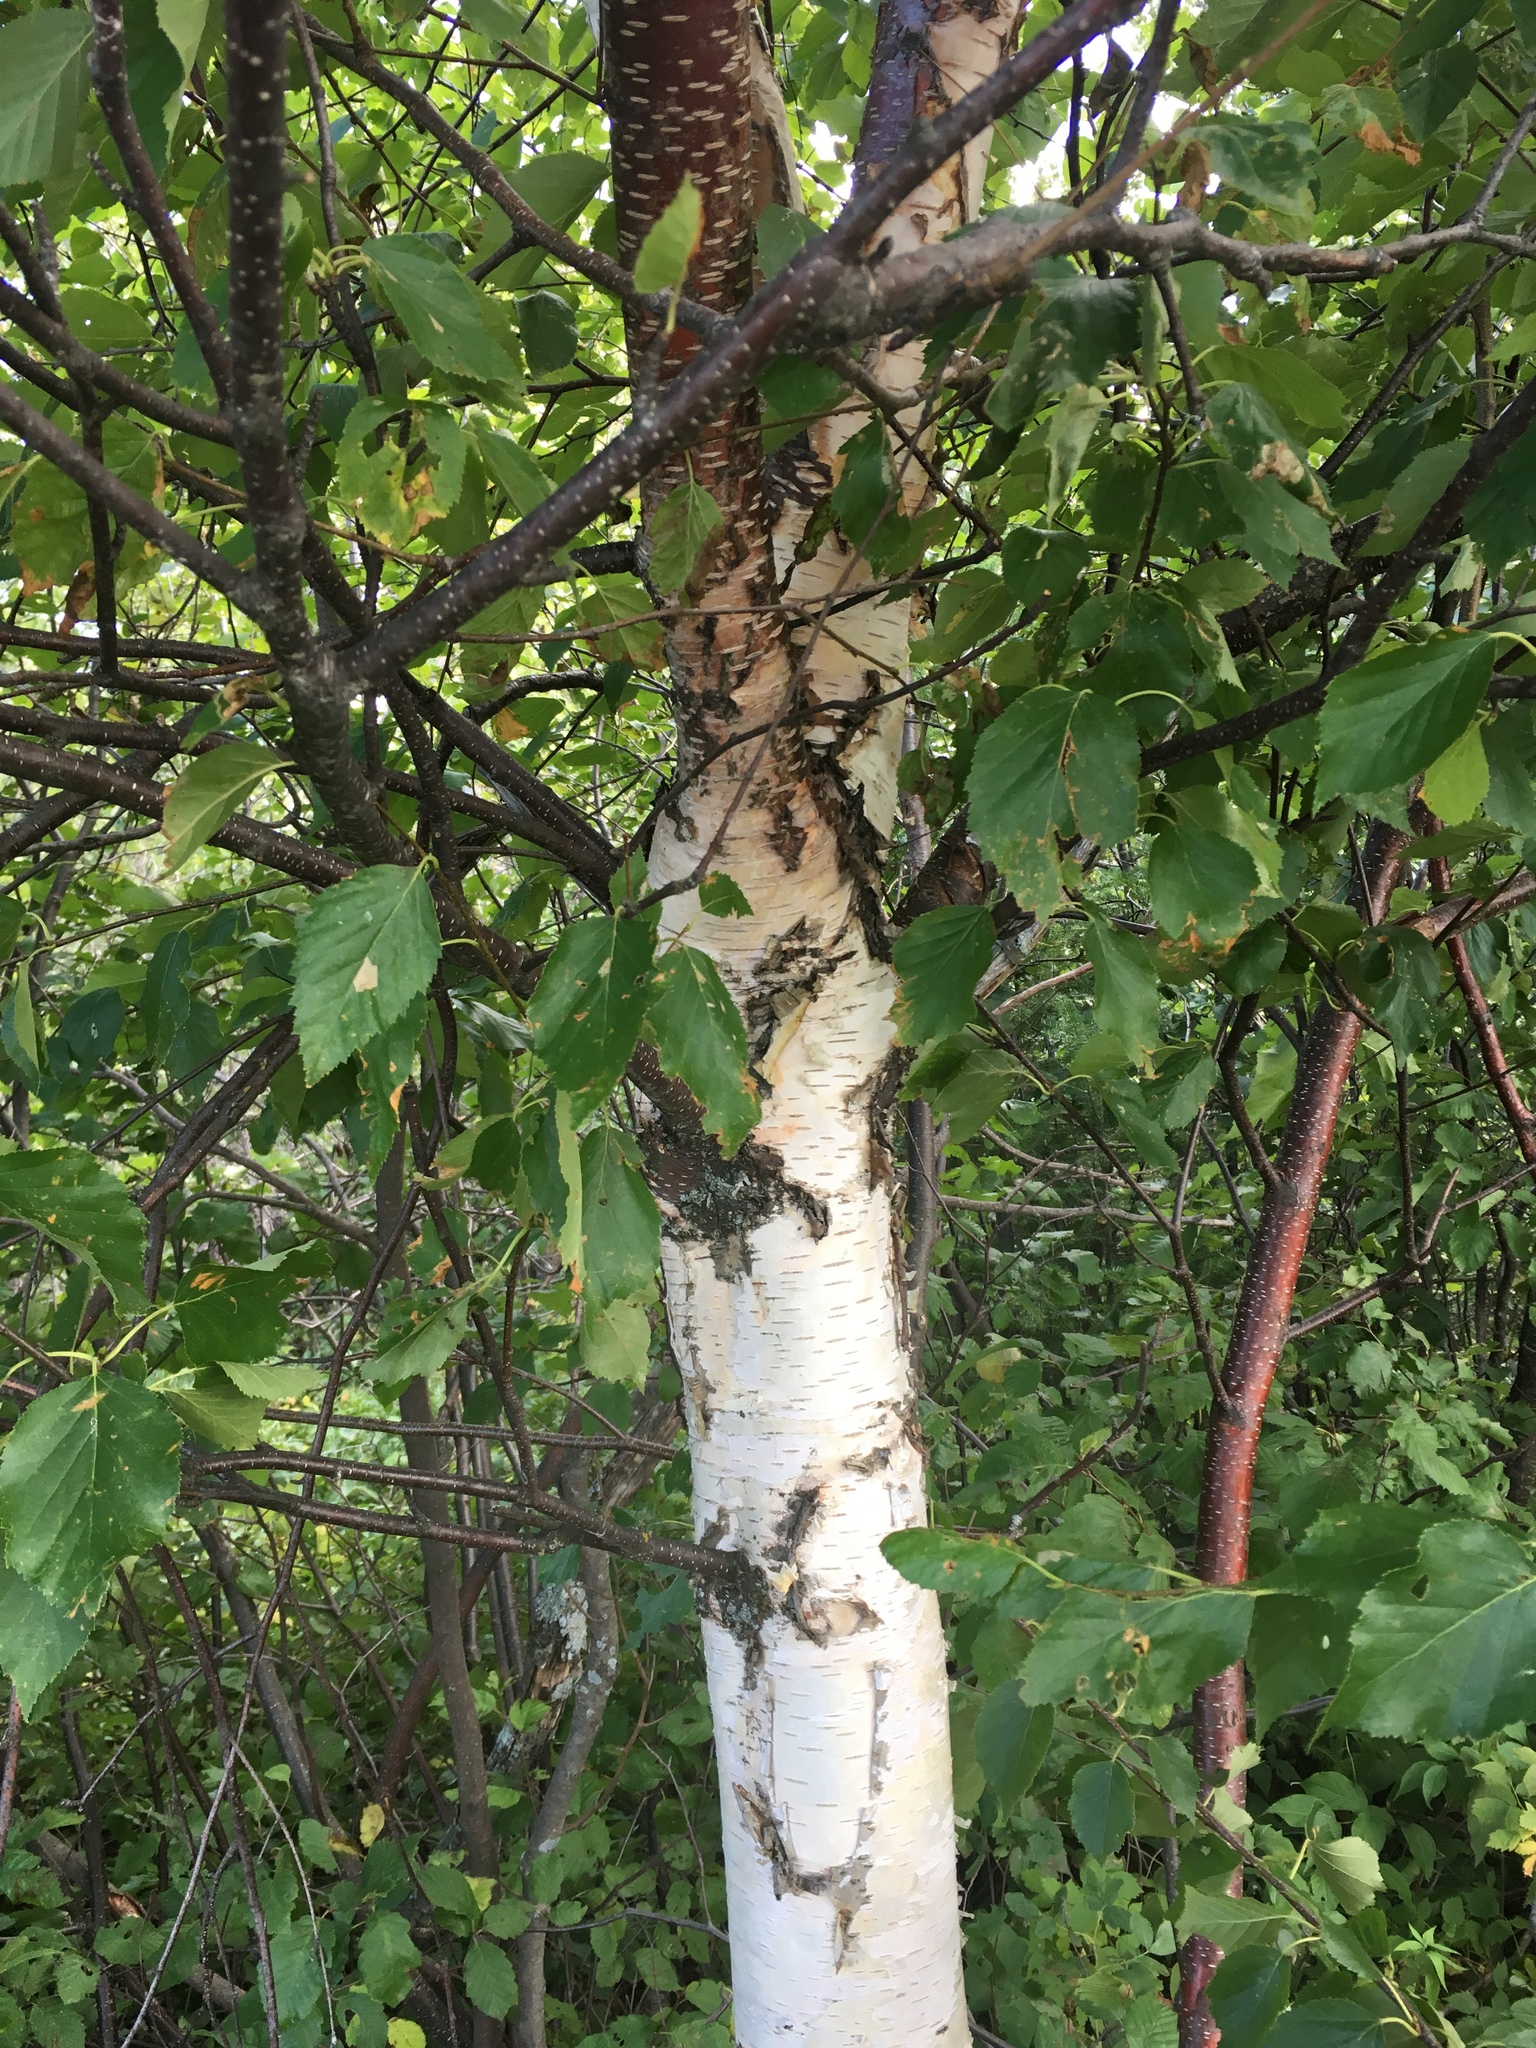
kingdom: Plantae
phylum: Tracheophyta
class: Magnoliopsida
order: Fagales
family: Betulaceae
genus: Betula
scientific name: Betula papyrifera
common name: Paper birch
